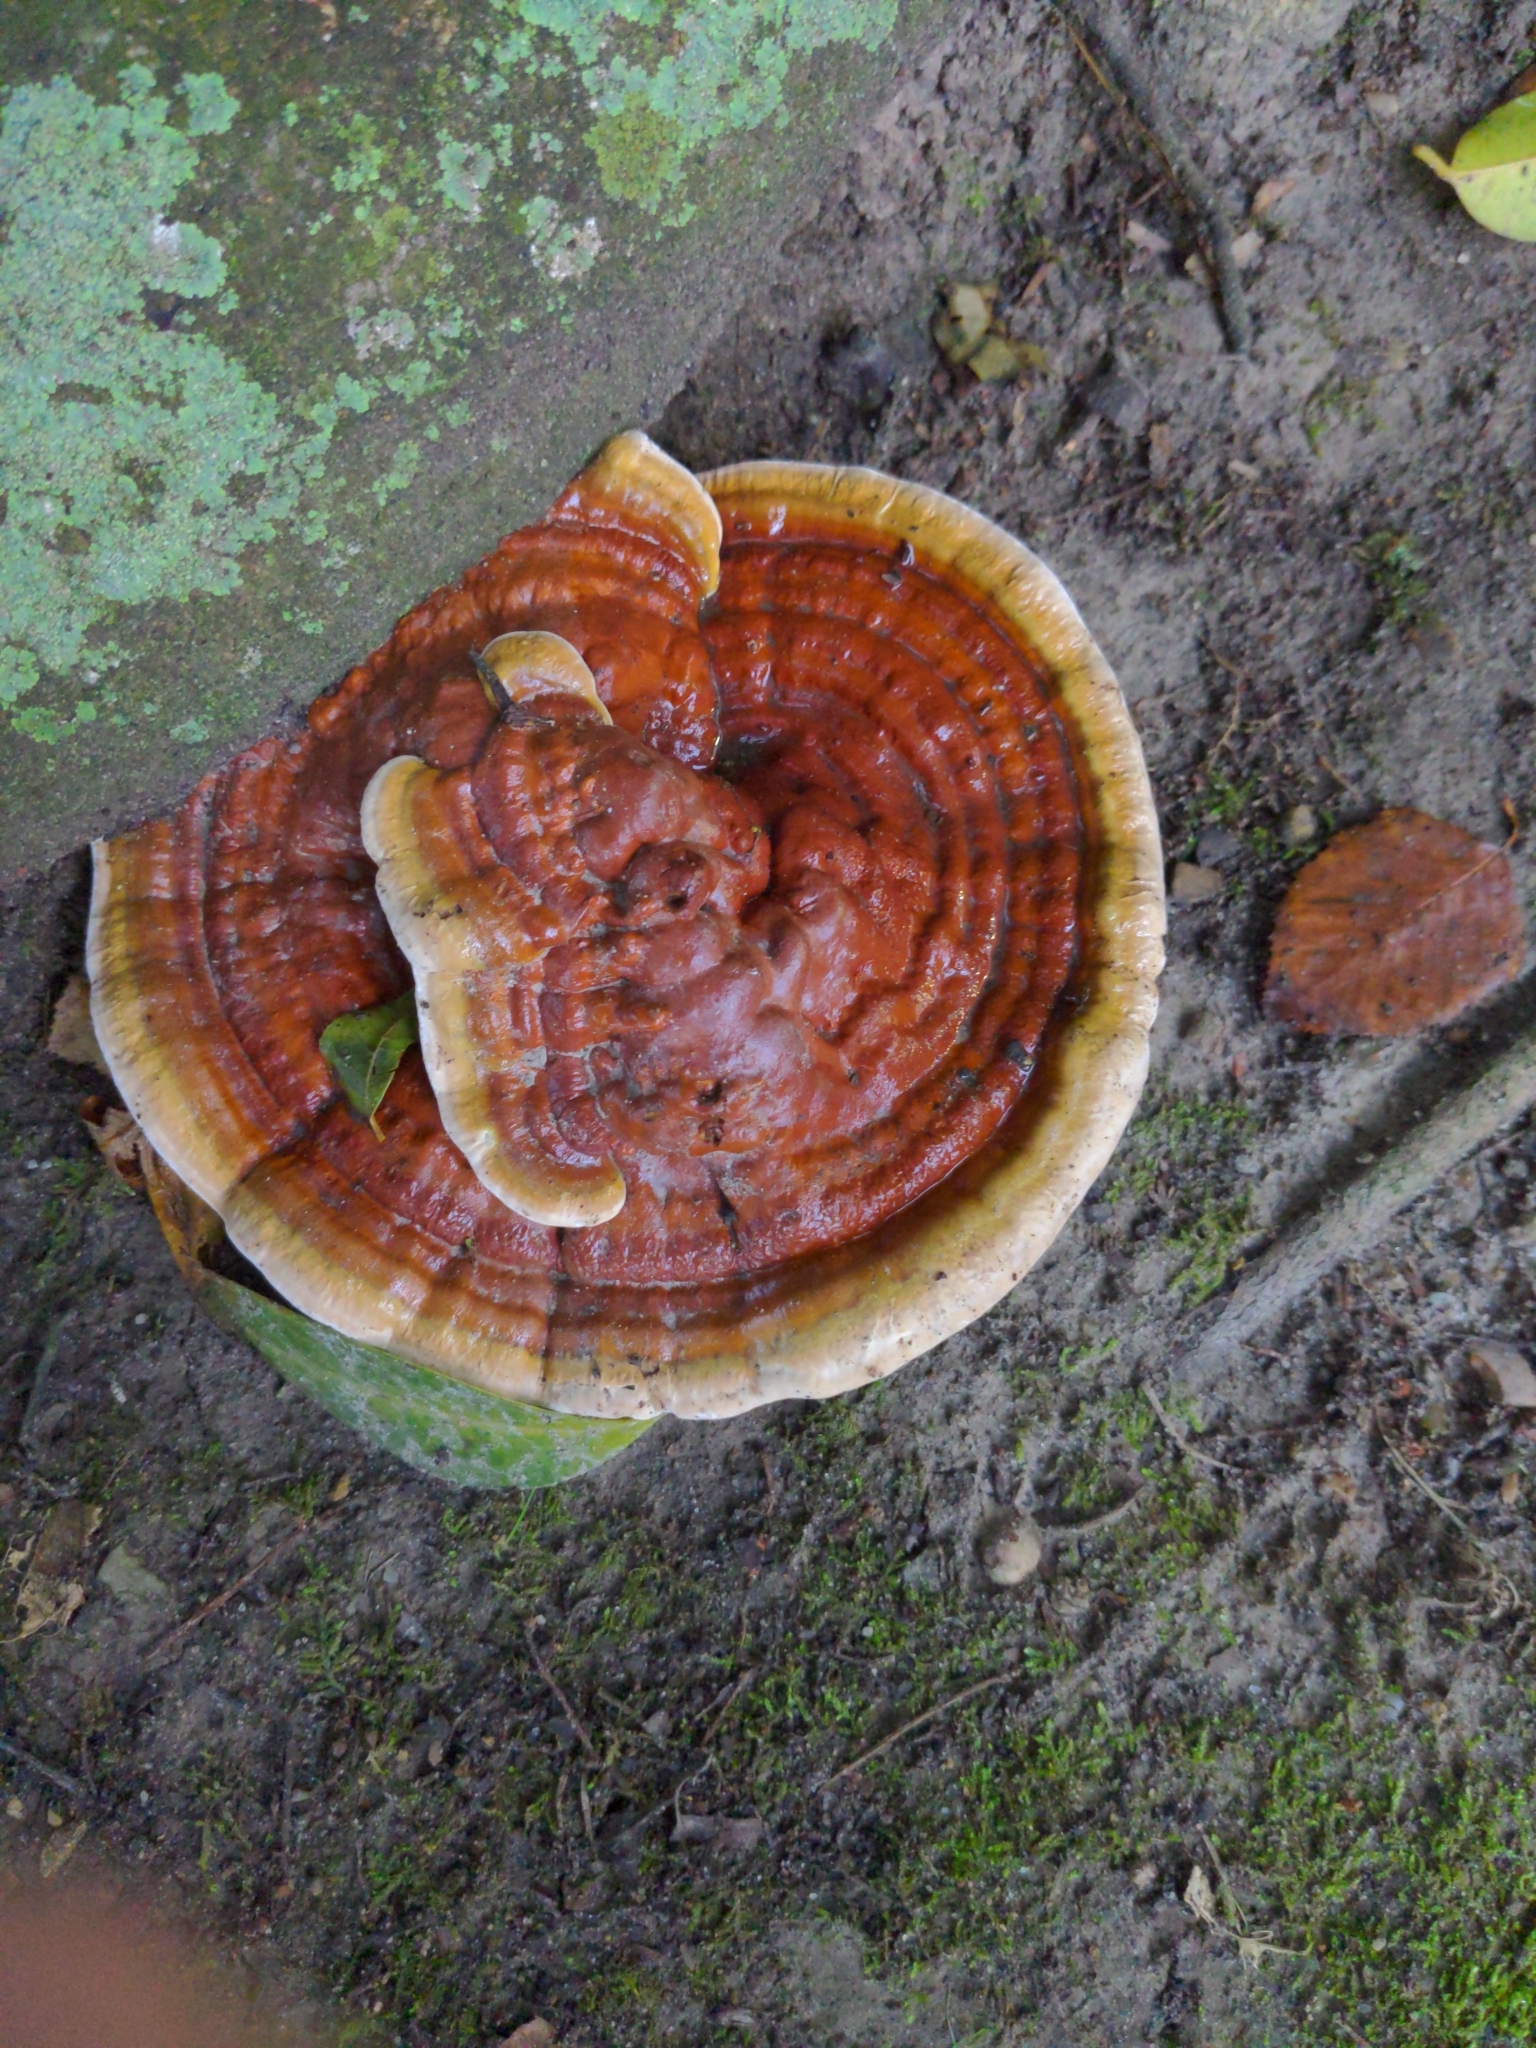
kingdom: Fungi
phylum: Basidiomycota
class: Agaricomycetes
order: Polyporales
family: Polyporaceae
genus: Ganoderma
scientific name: Ganoderma resinaceum
